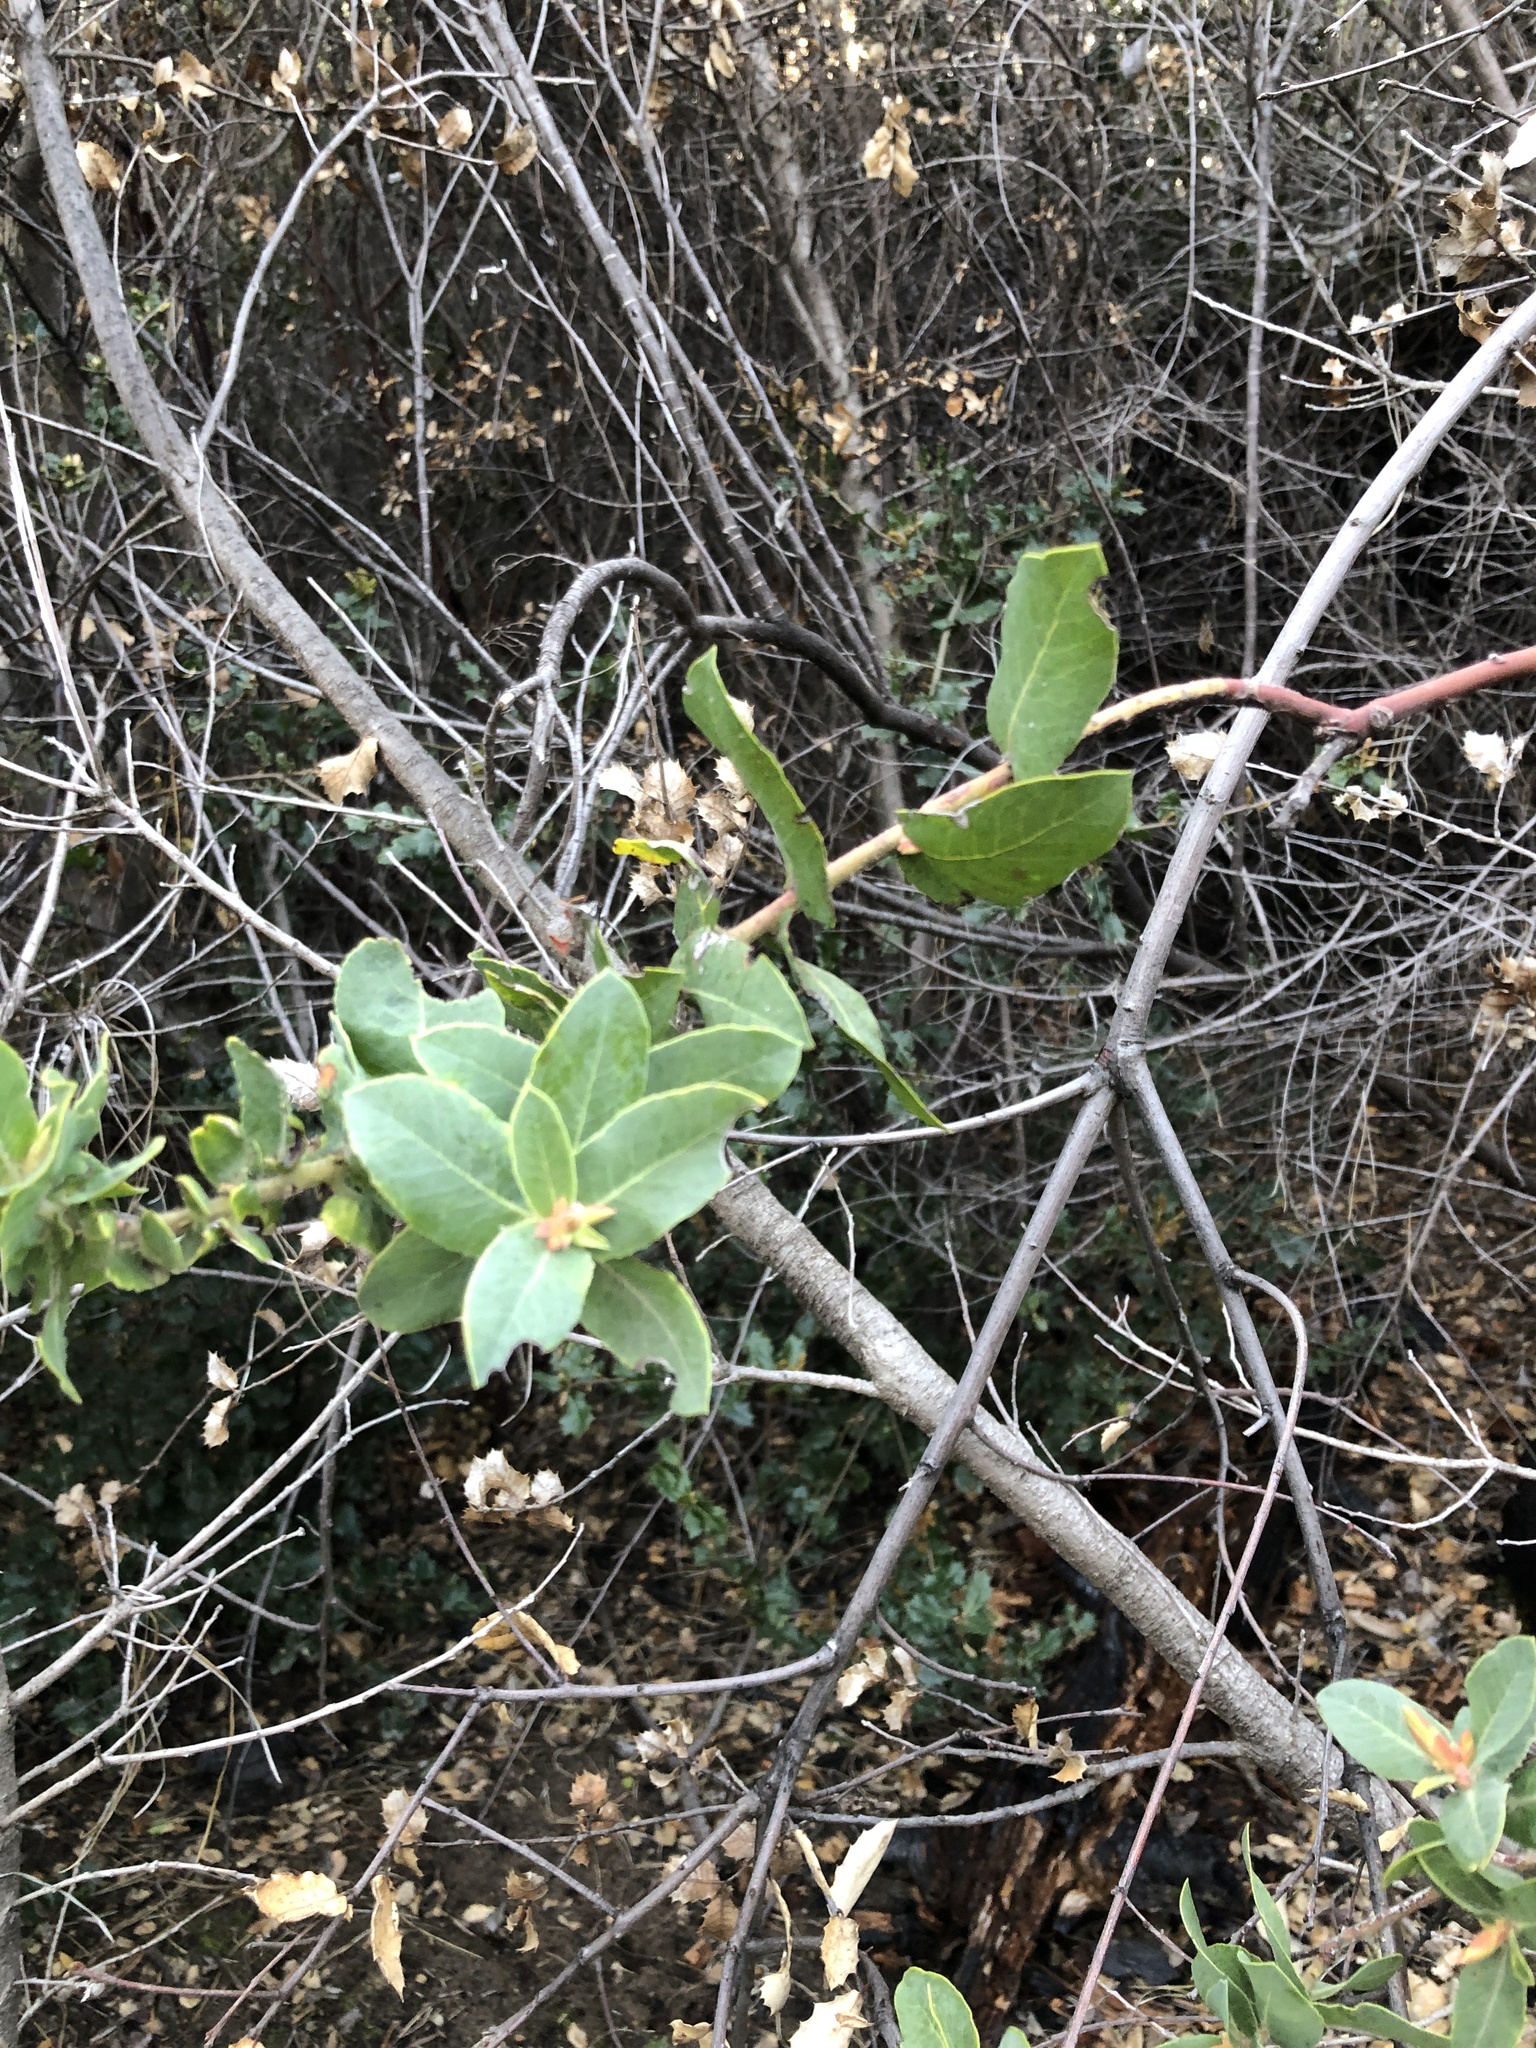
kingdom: Plantae
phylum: Tracheophyta
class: Magnoliopsida
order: Ericales
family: Ericaceae
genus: Arctostaphylos
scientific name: Arctostaphylos andersonii
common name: Santa cruz manzanita
